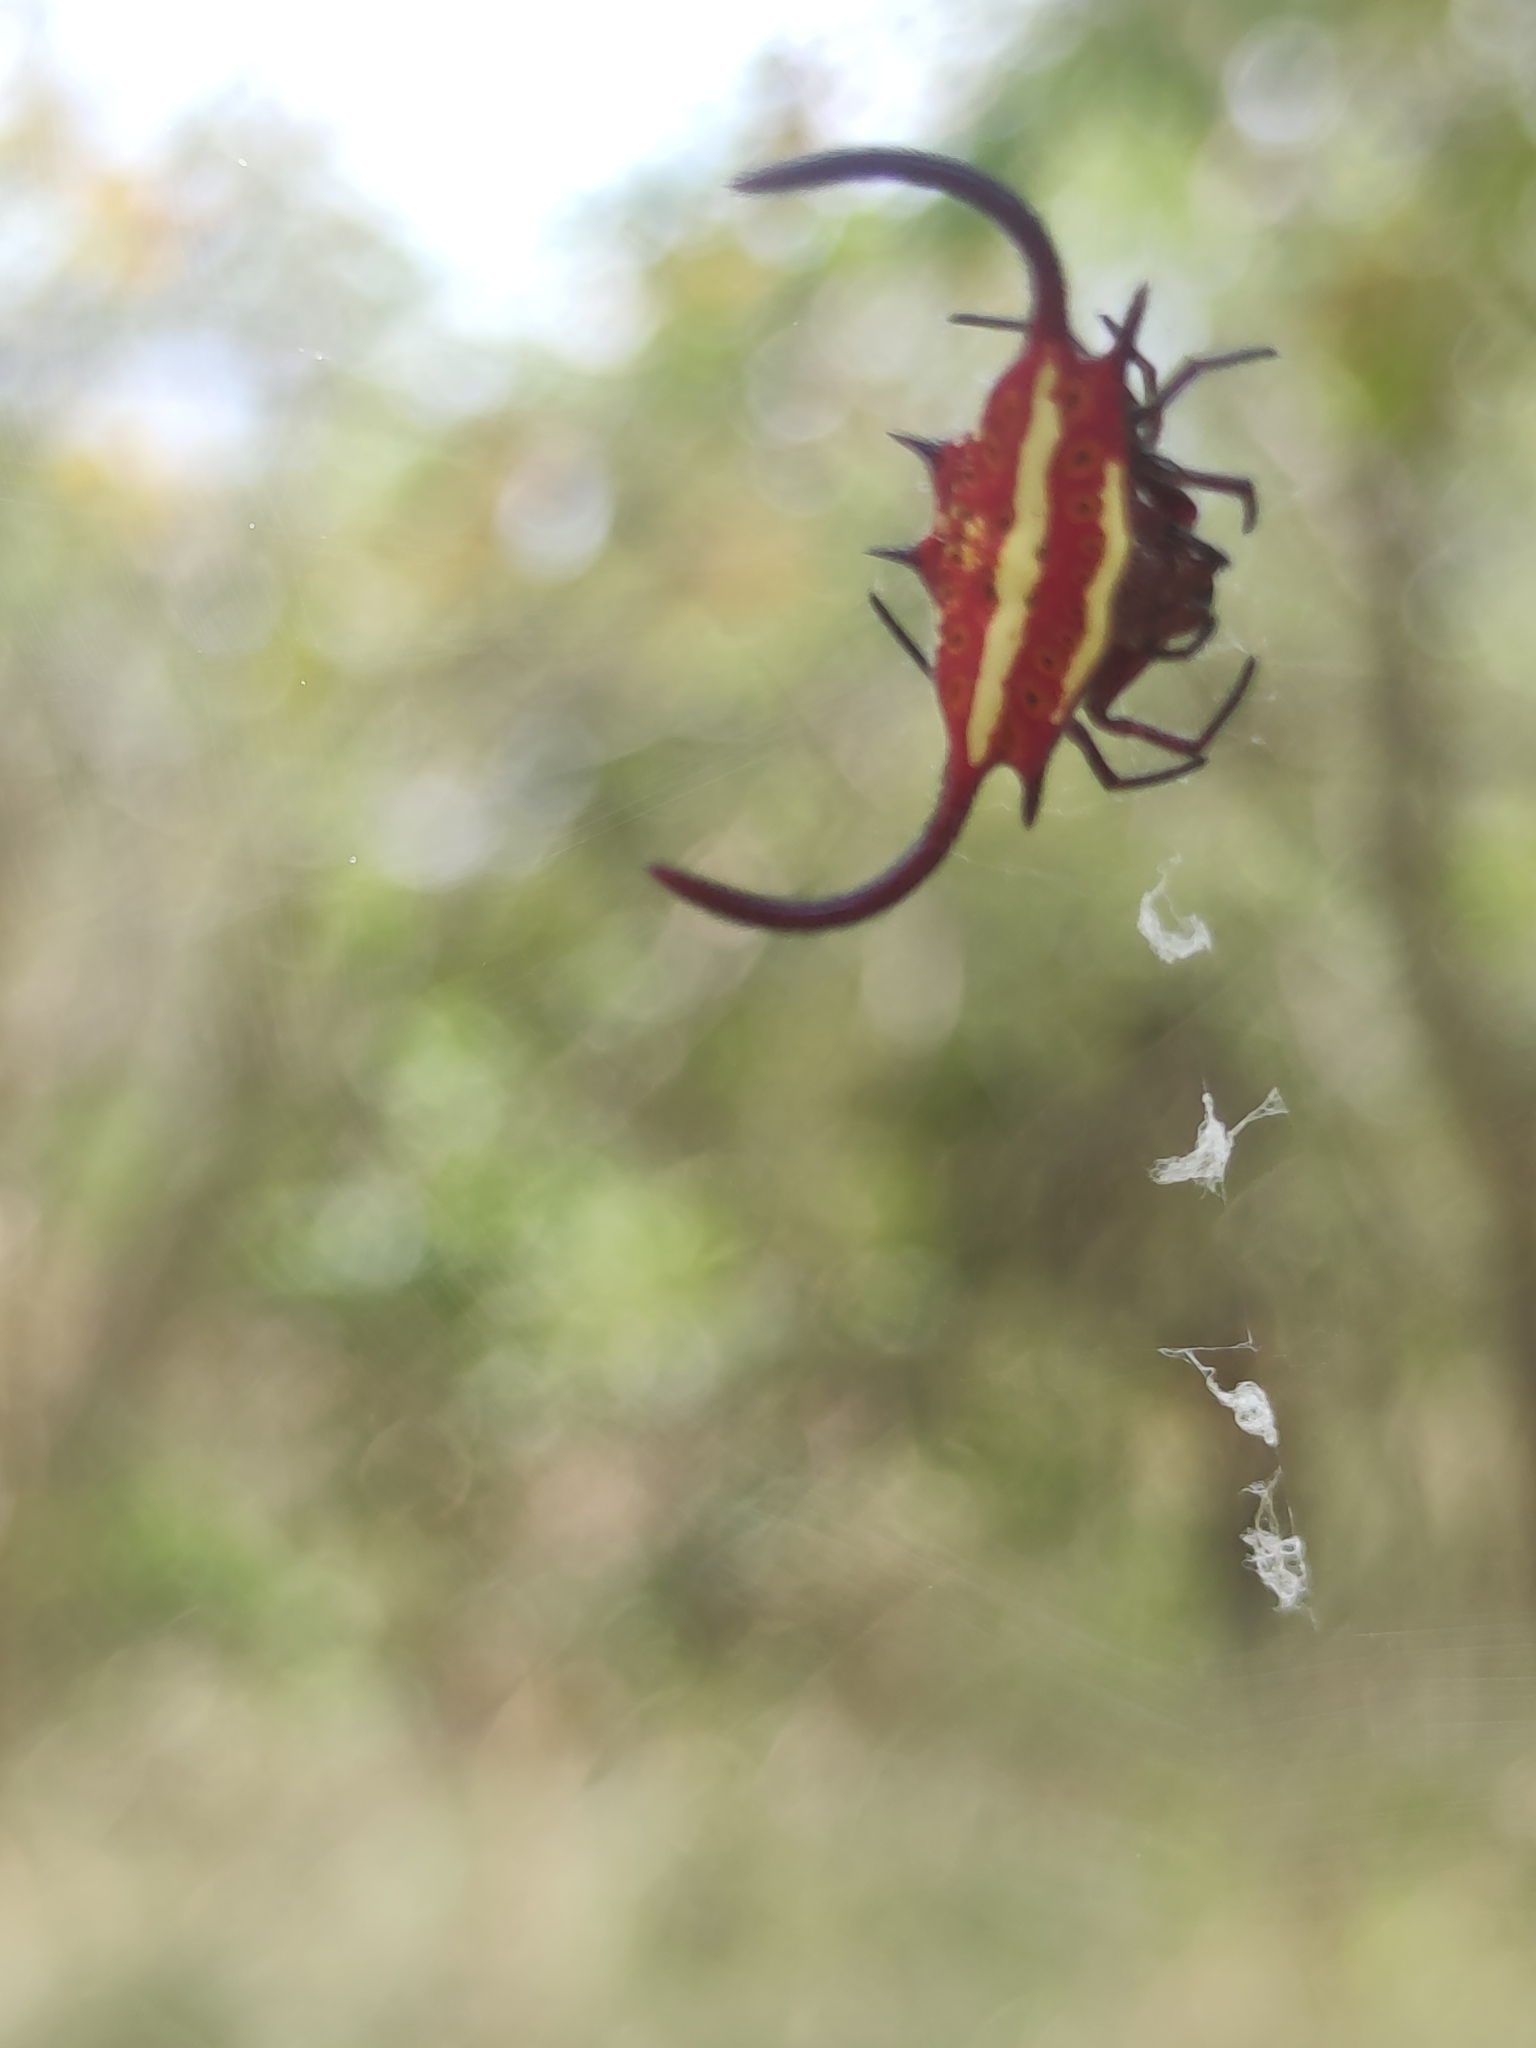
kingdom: Animalia
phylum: Arthropoda
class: Arachnida
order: Araneae
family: Araneidae
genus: Gasteracantha
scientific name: Gasteracantha falcicornis
